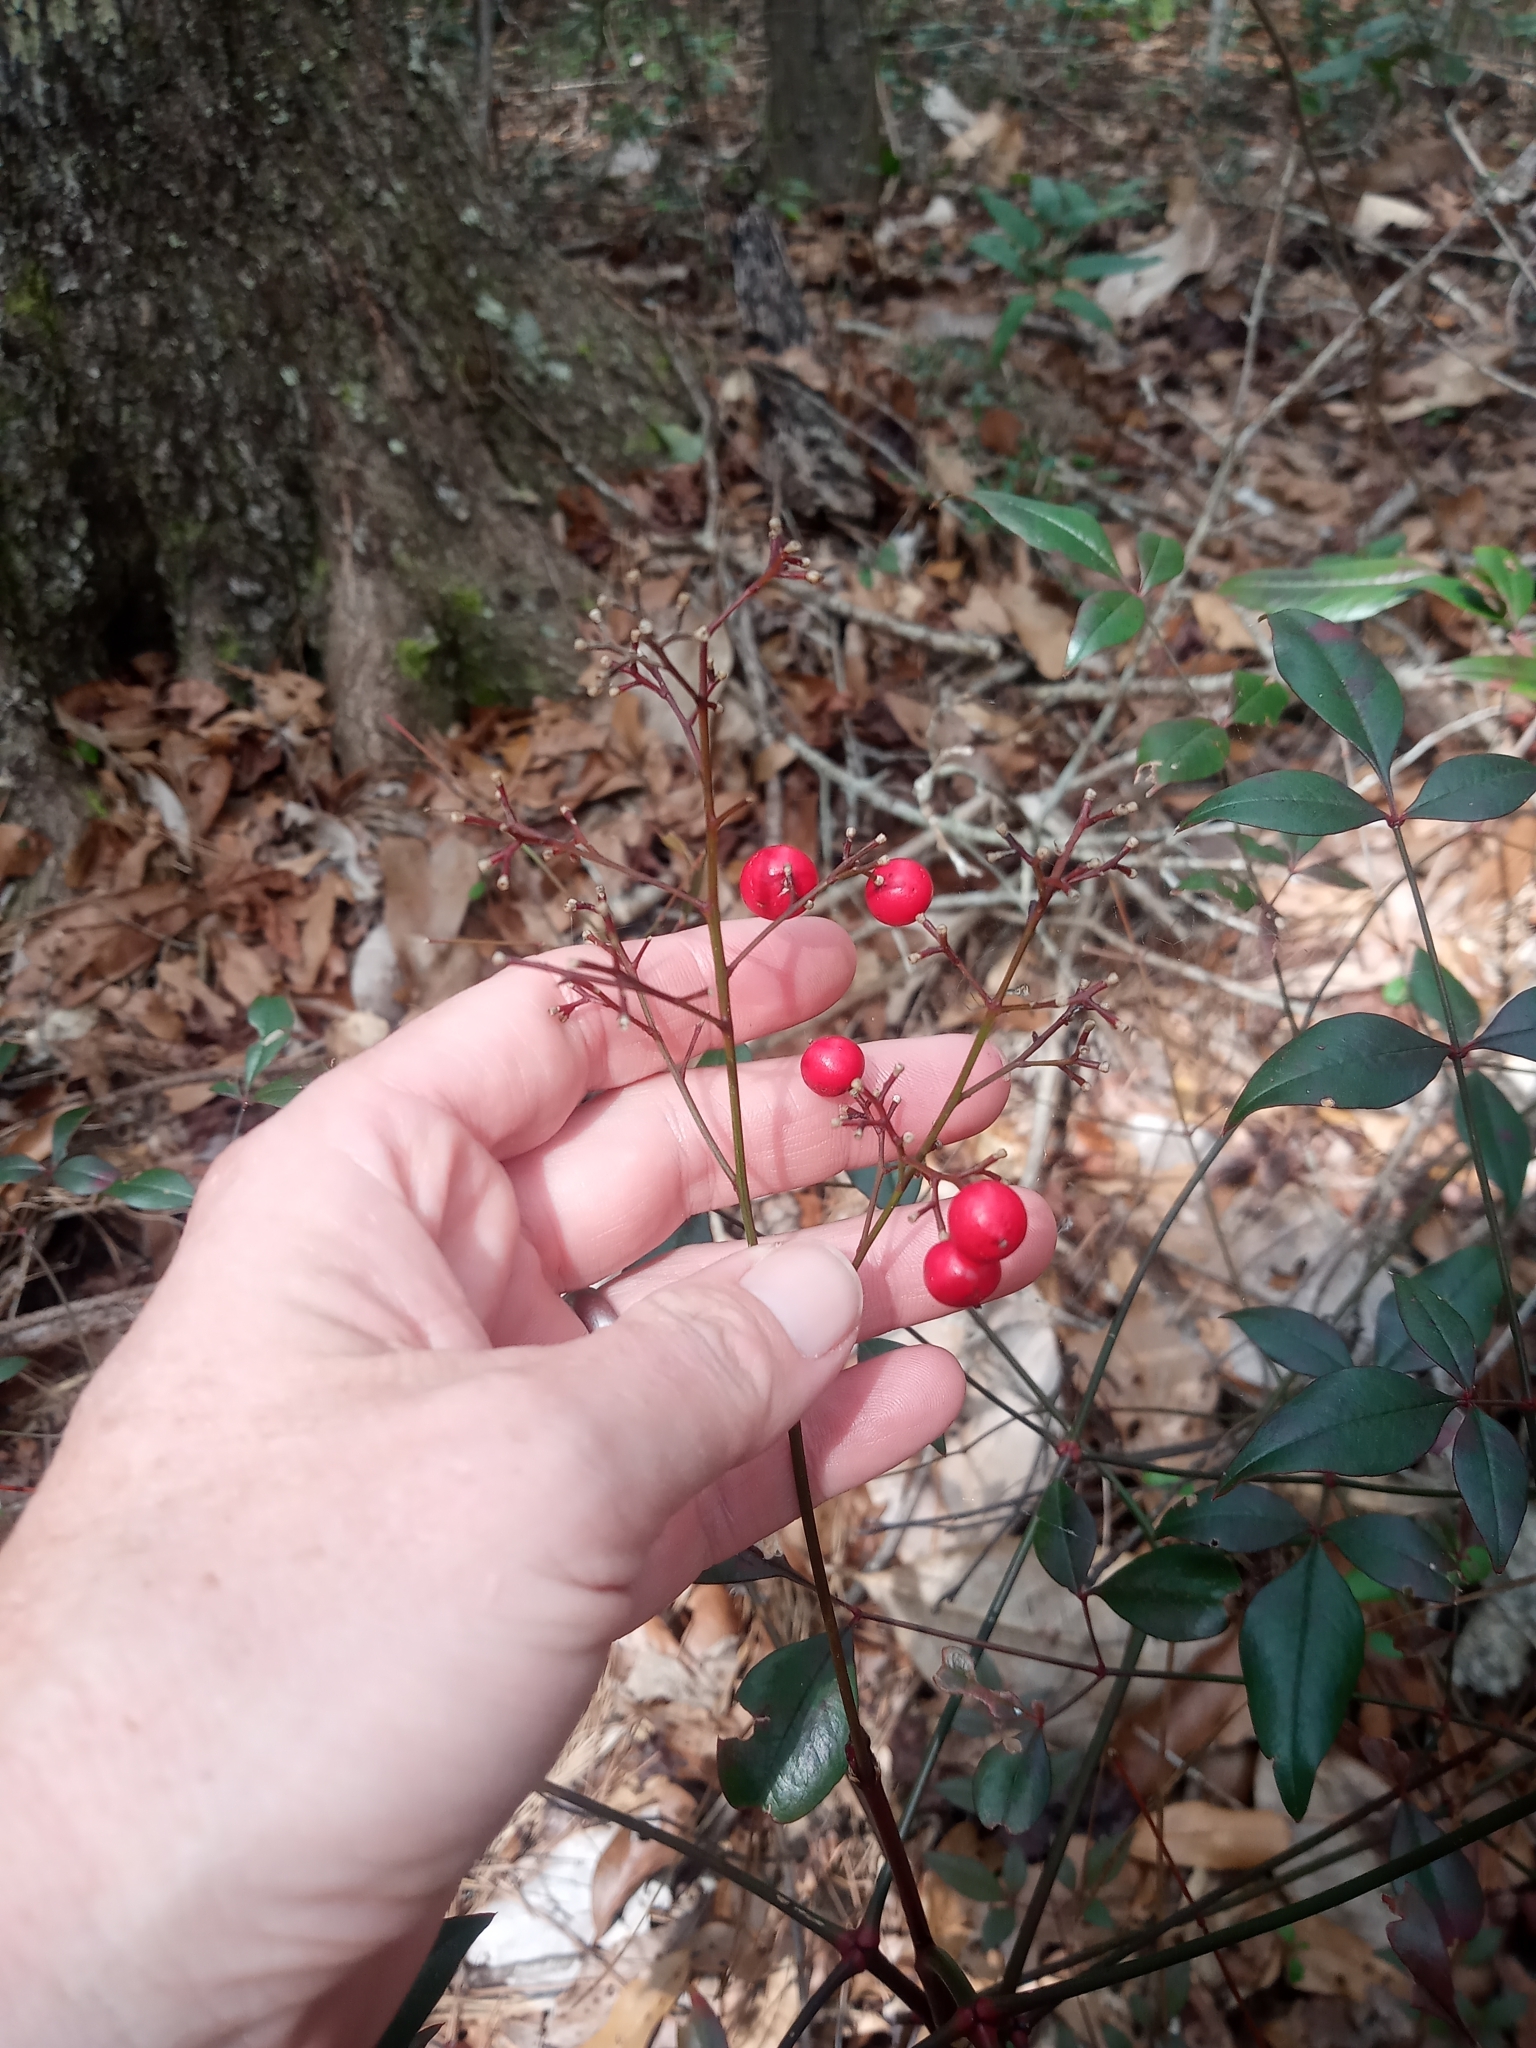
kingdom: Plantae
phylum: Tracheophyta
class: Magnoliopsida
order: Ranunculales
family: Berberidaceae
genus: Nandina
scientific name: Nandina domestica
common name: Sacred bamboo
